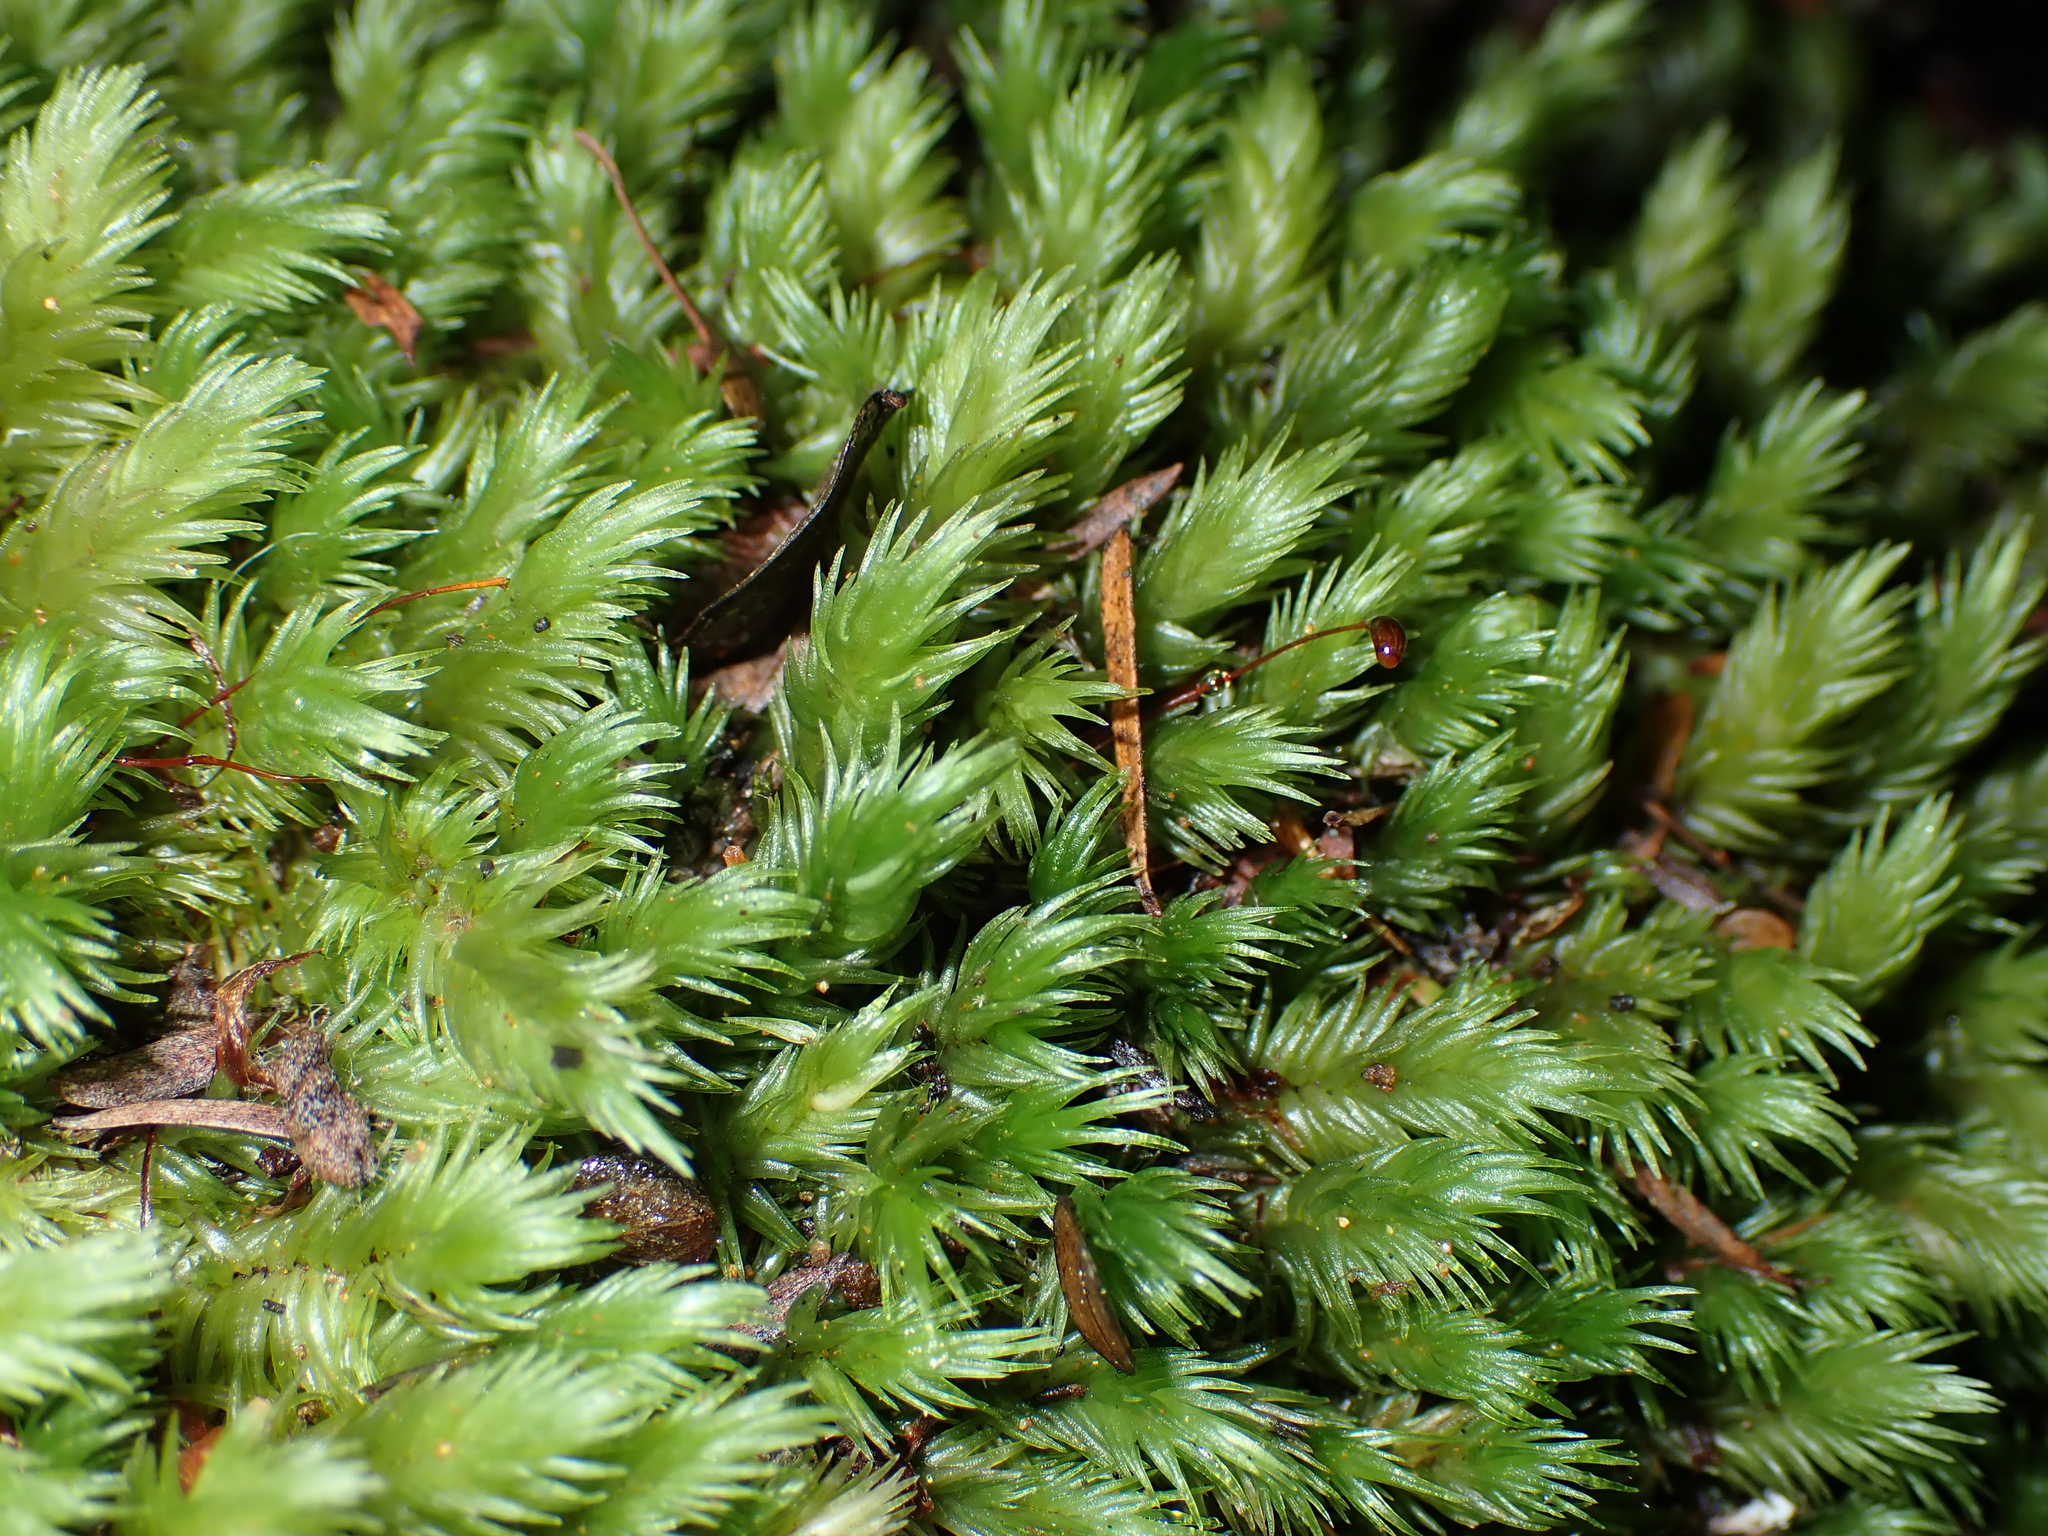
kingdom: Plantae
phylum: Bryophyta
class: Bryopsida
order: Dicranales
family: Leucobryaceae
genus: Leucobryum
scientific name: Leucobryum javense
